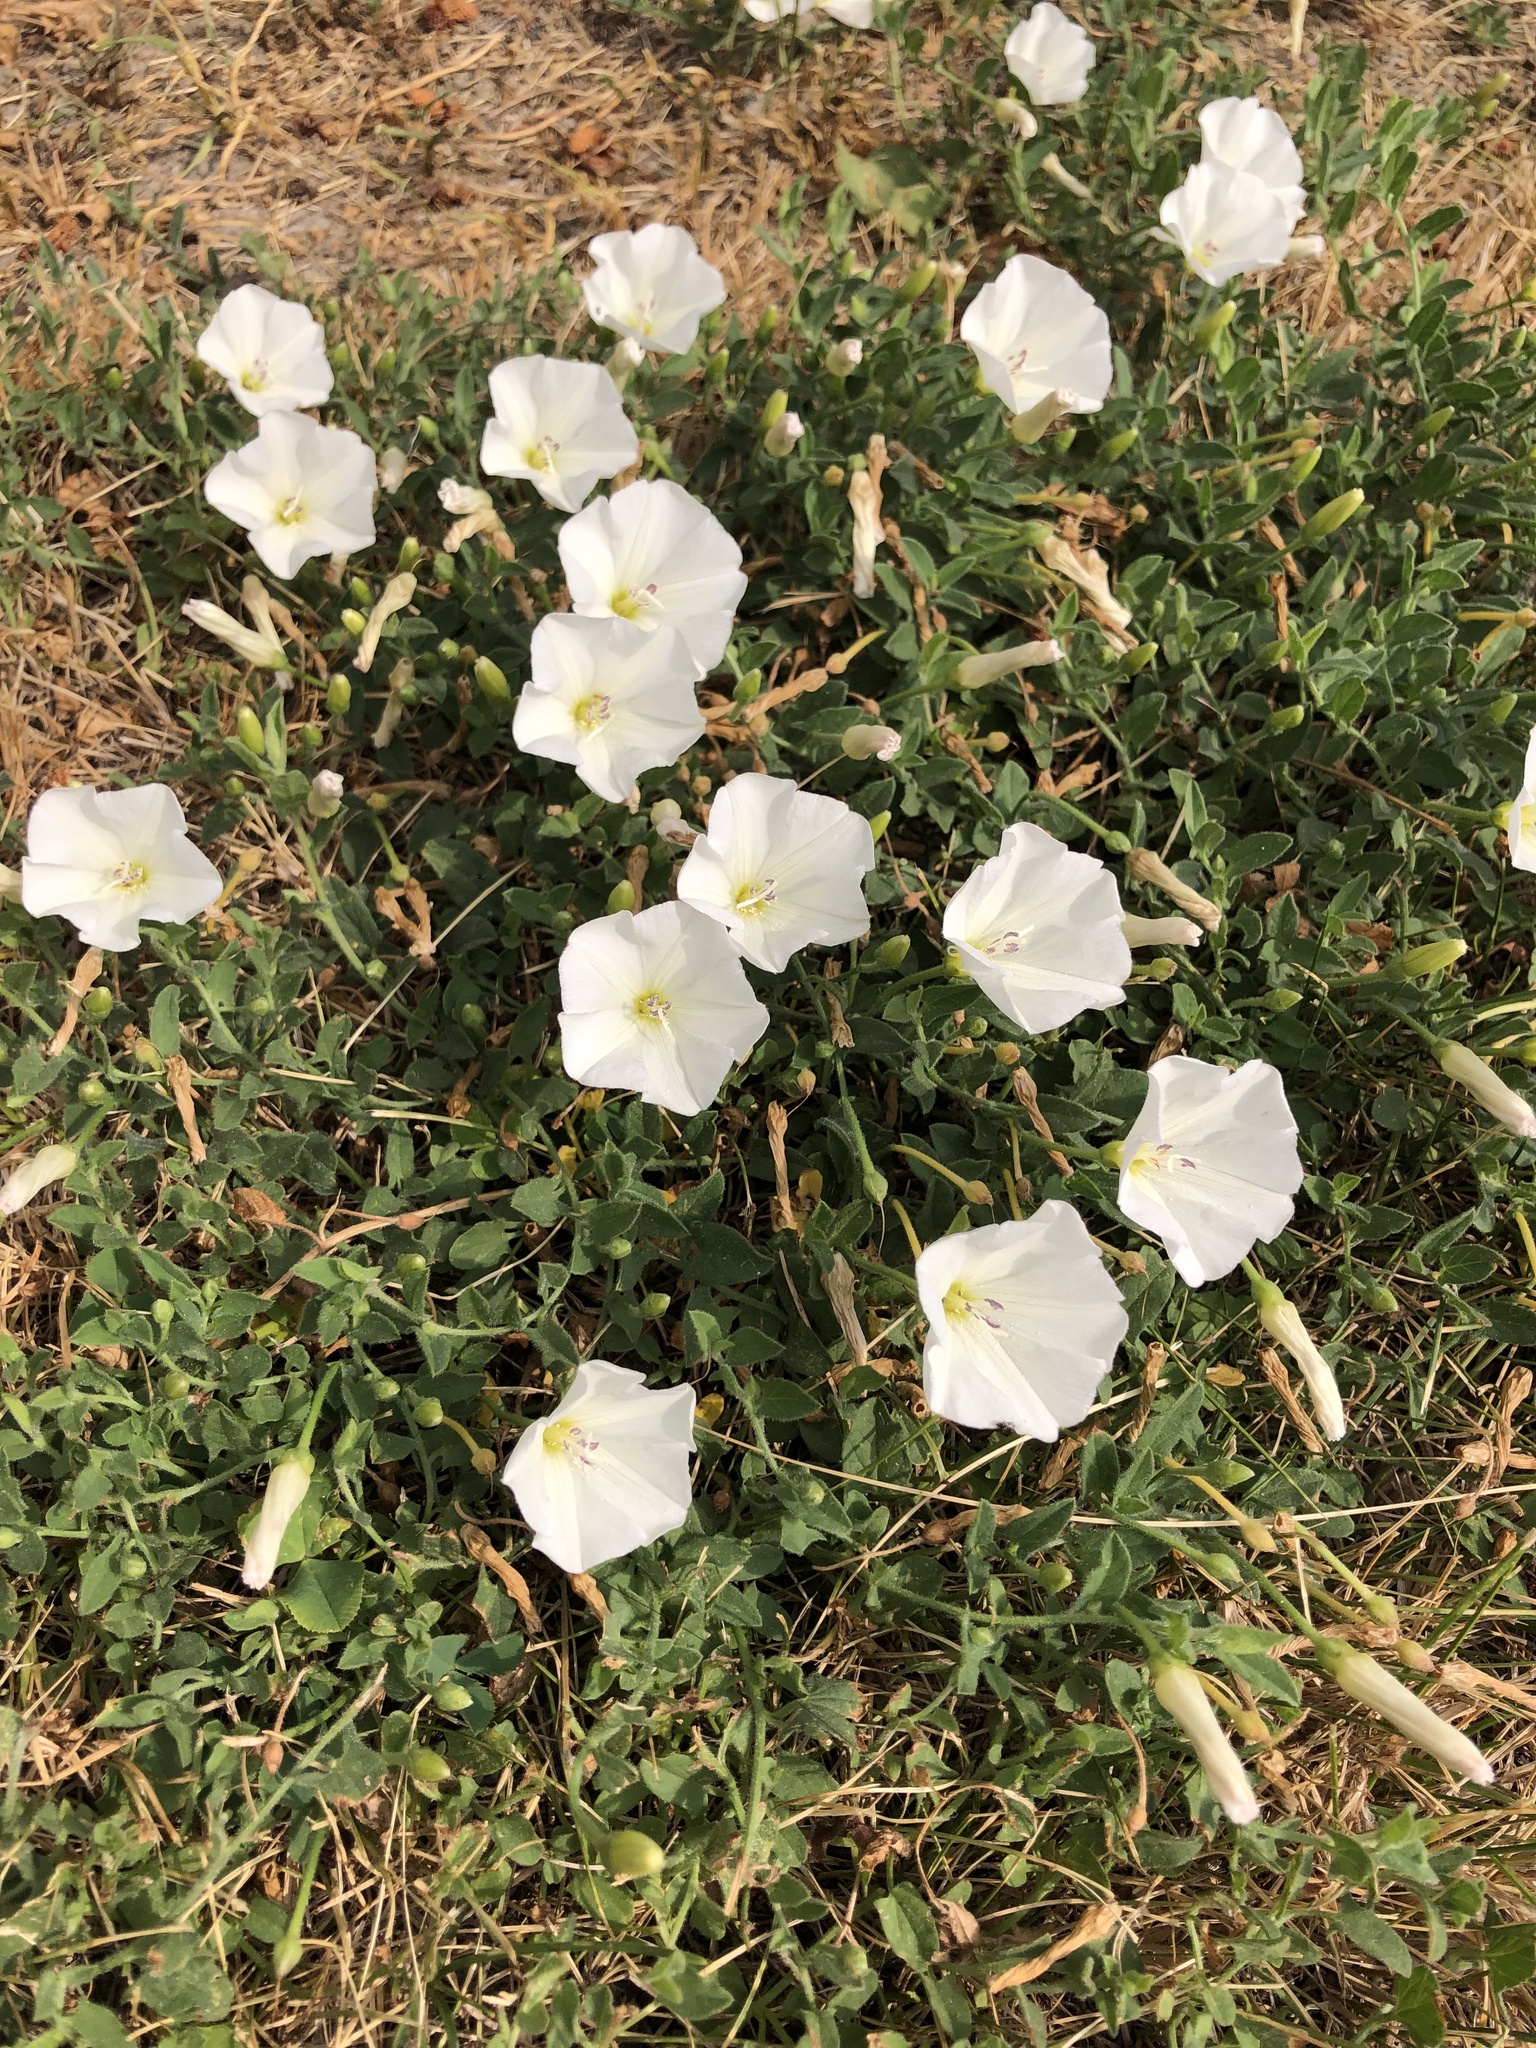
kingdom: Plantae
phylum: Tracheophyta
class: Magnoliopsida
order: Solanales
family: Convolvulaceae
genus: Convolvulus
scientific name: Convolvulus arvensis
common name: Field bindweed
